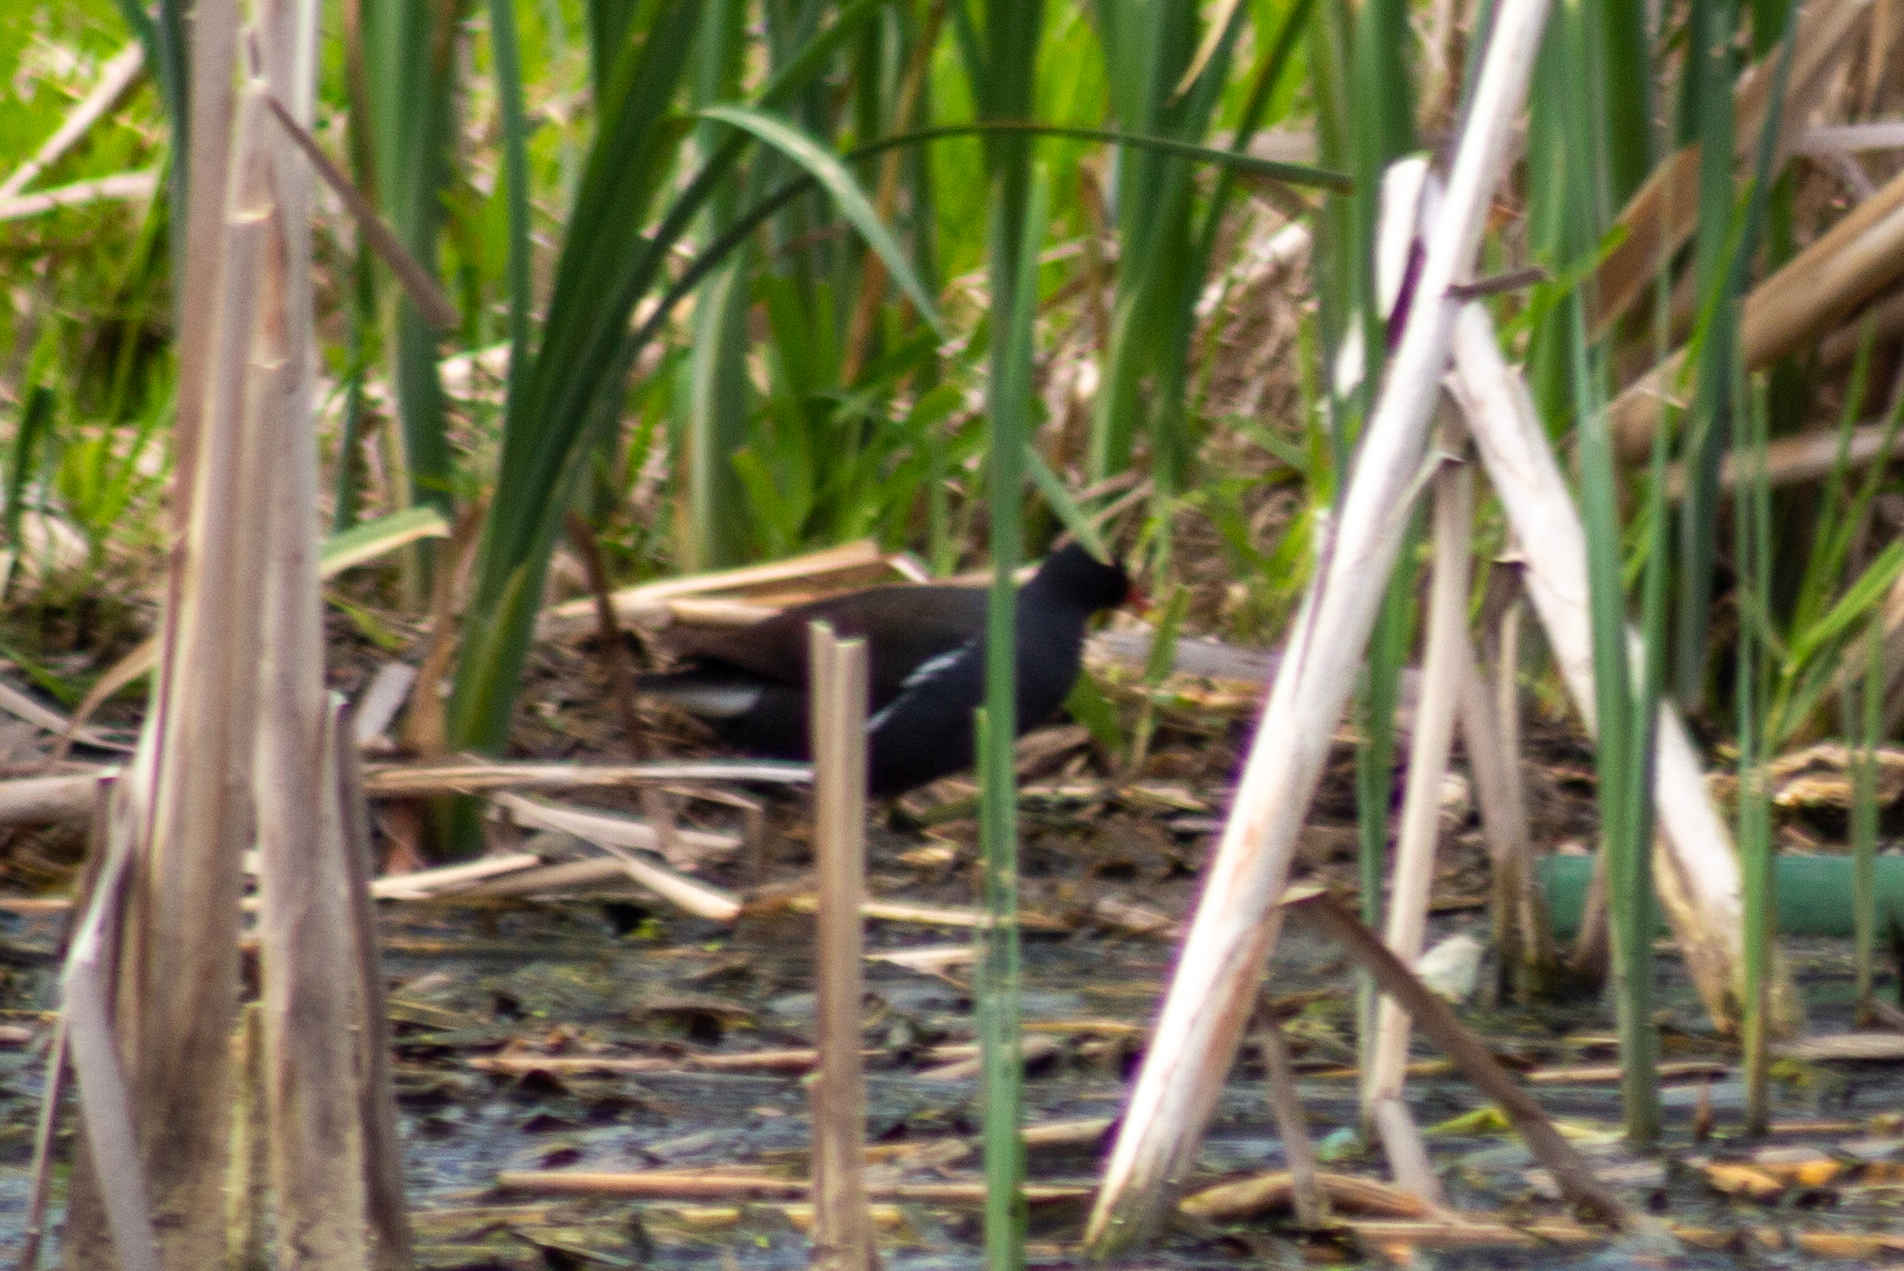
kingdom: Animalia
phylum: Chordata
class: Aves
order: Gruiformes
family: Rallidae
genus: Gallinula
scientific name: Gallinula chloropus
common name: Common moorhen
